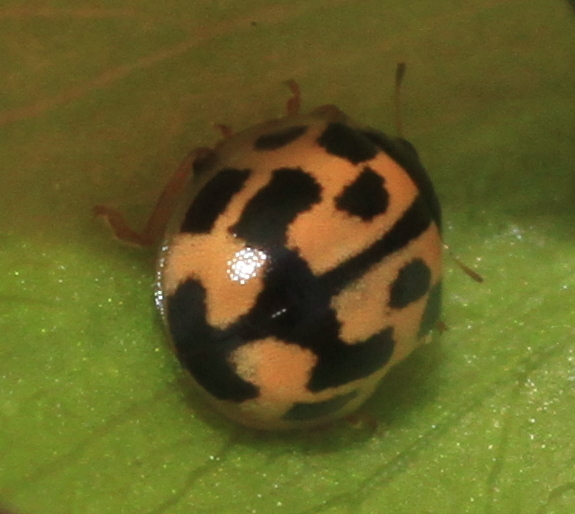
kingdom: Animalia
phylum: Arthropoda
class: Insecta
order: Coleoptera
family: Coccinellidae
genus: Propylaea
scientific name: Propylaea quatuordecimpunctata
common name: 14-spotted ladybird beetle
